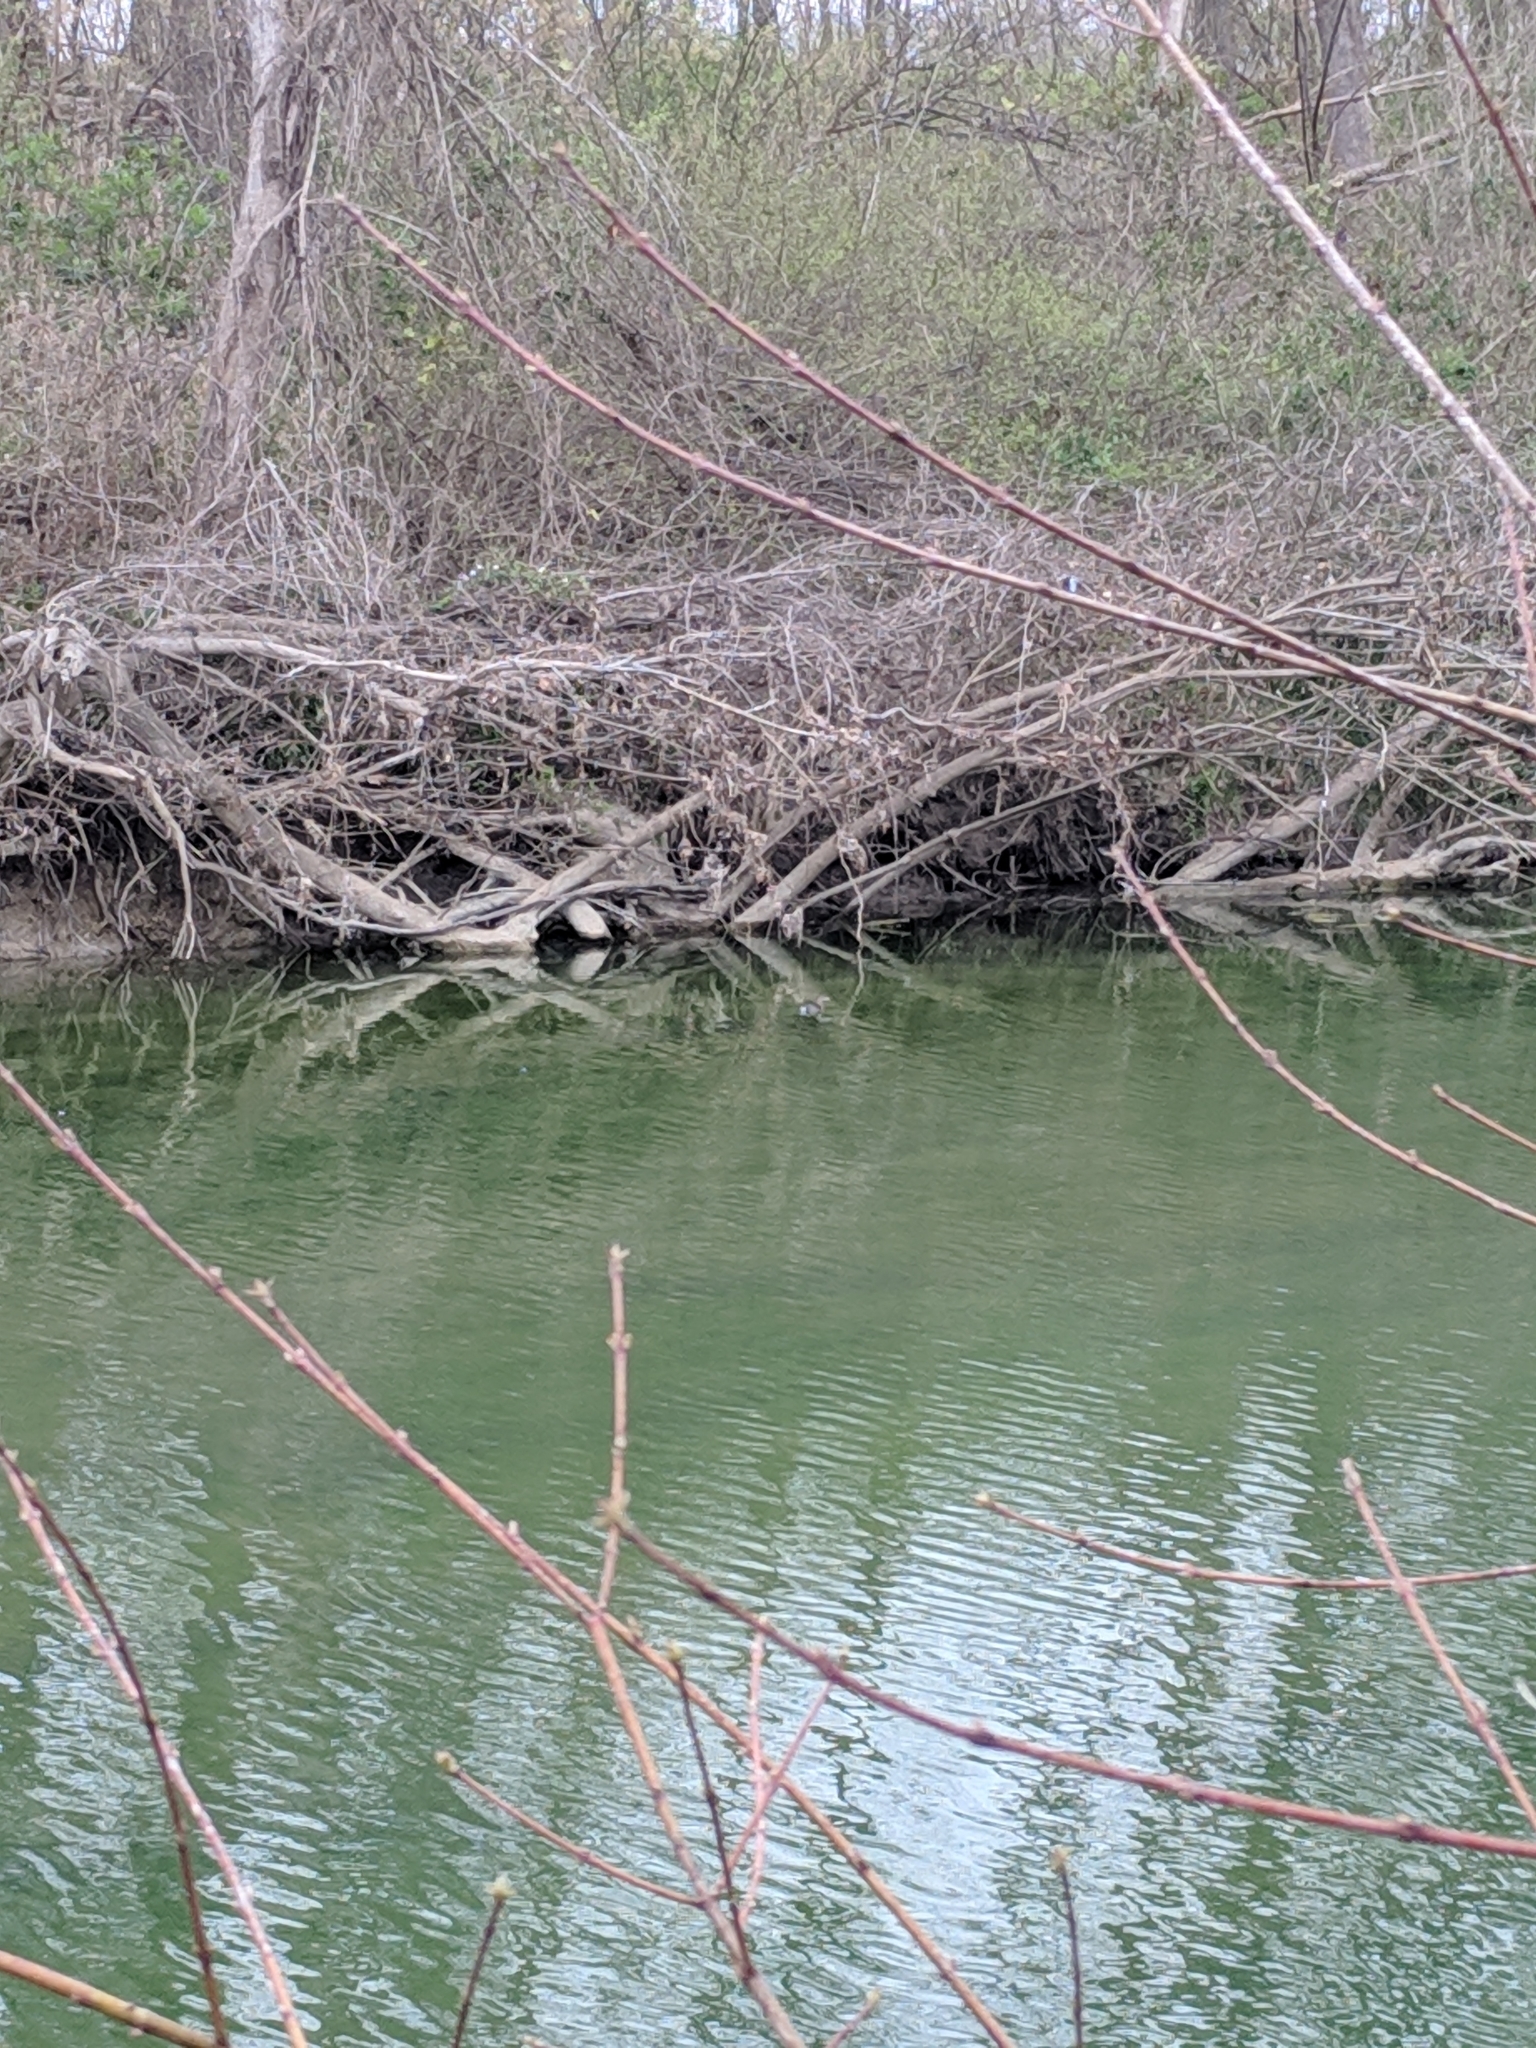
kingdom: Animalia
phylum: Chordata
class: Aves
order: Podicipediformes
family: Podicipedidae
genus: Podilymbus
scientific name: Podilymbus podiceps
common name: Pied-billed grebe
